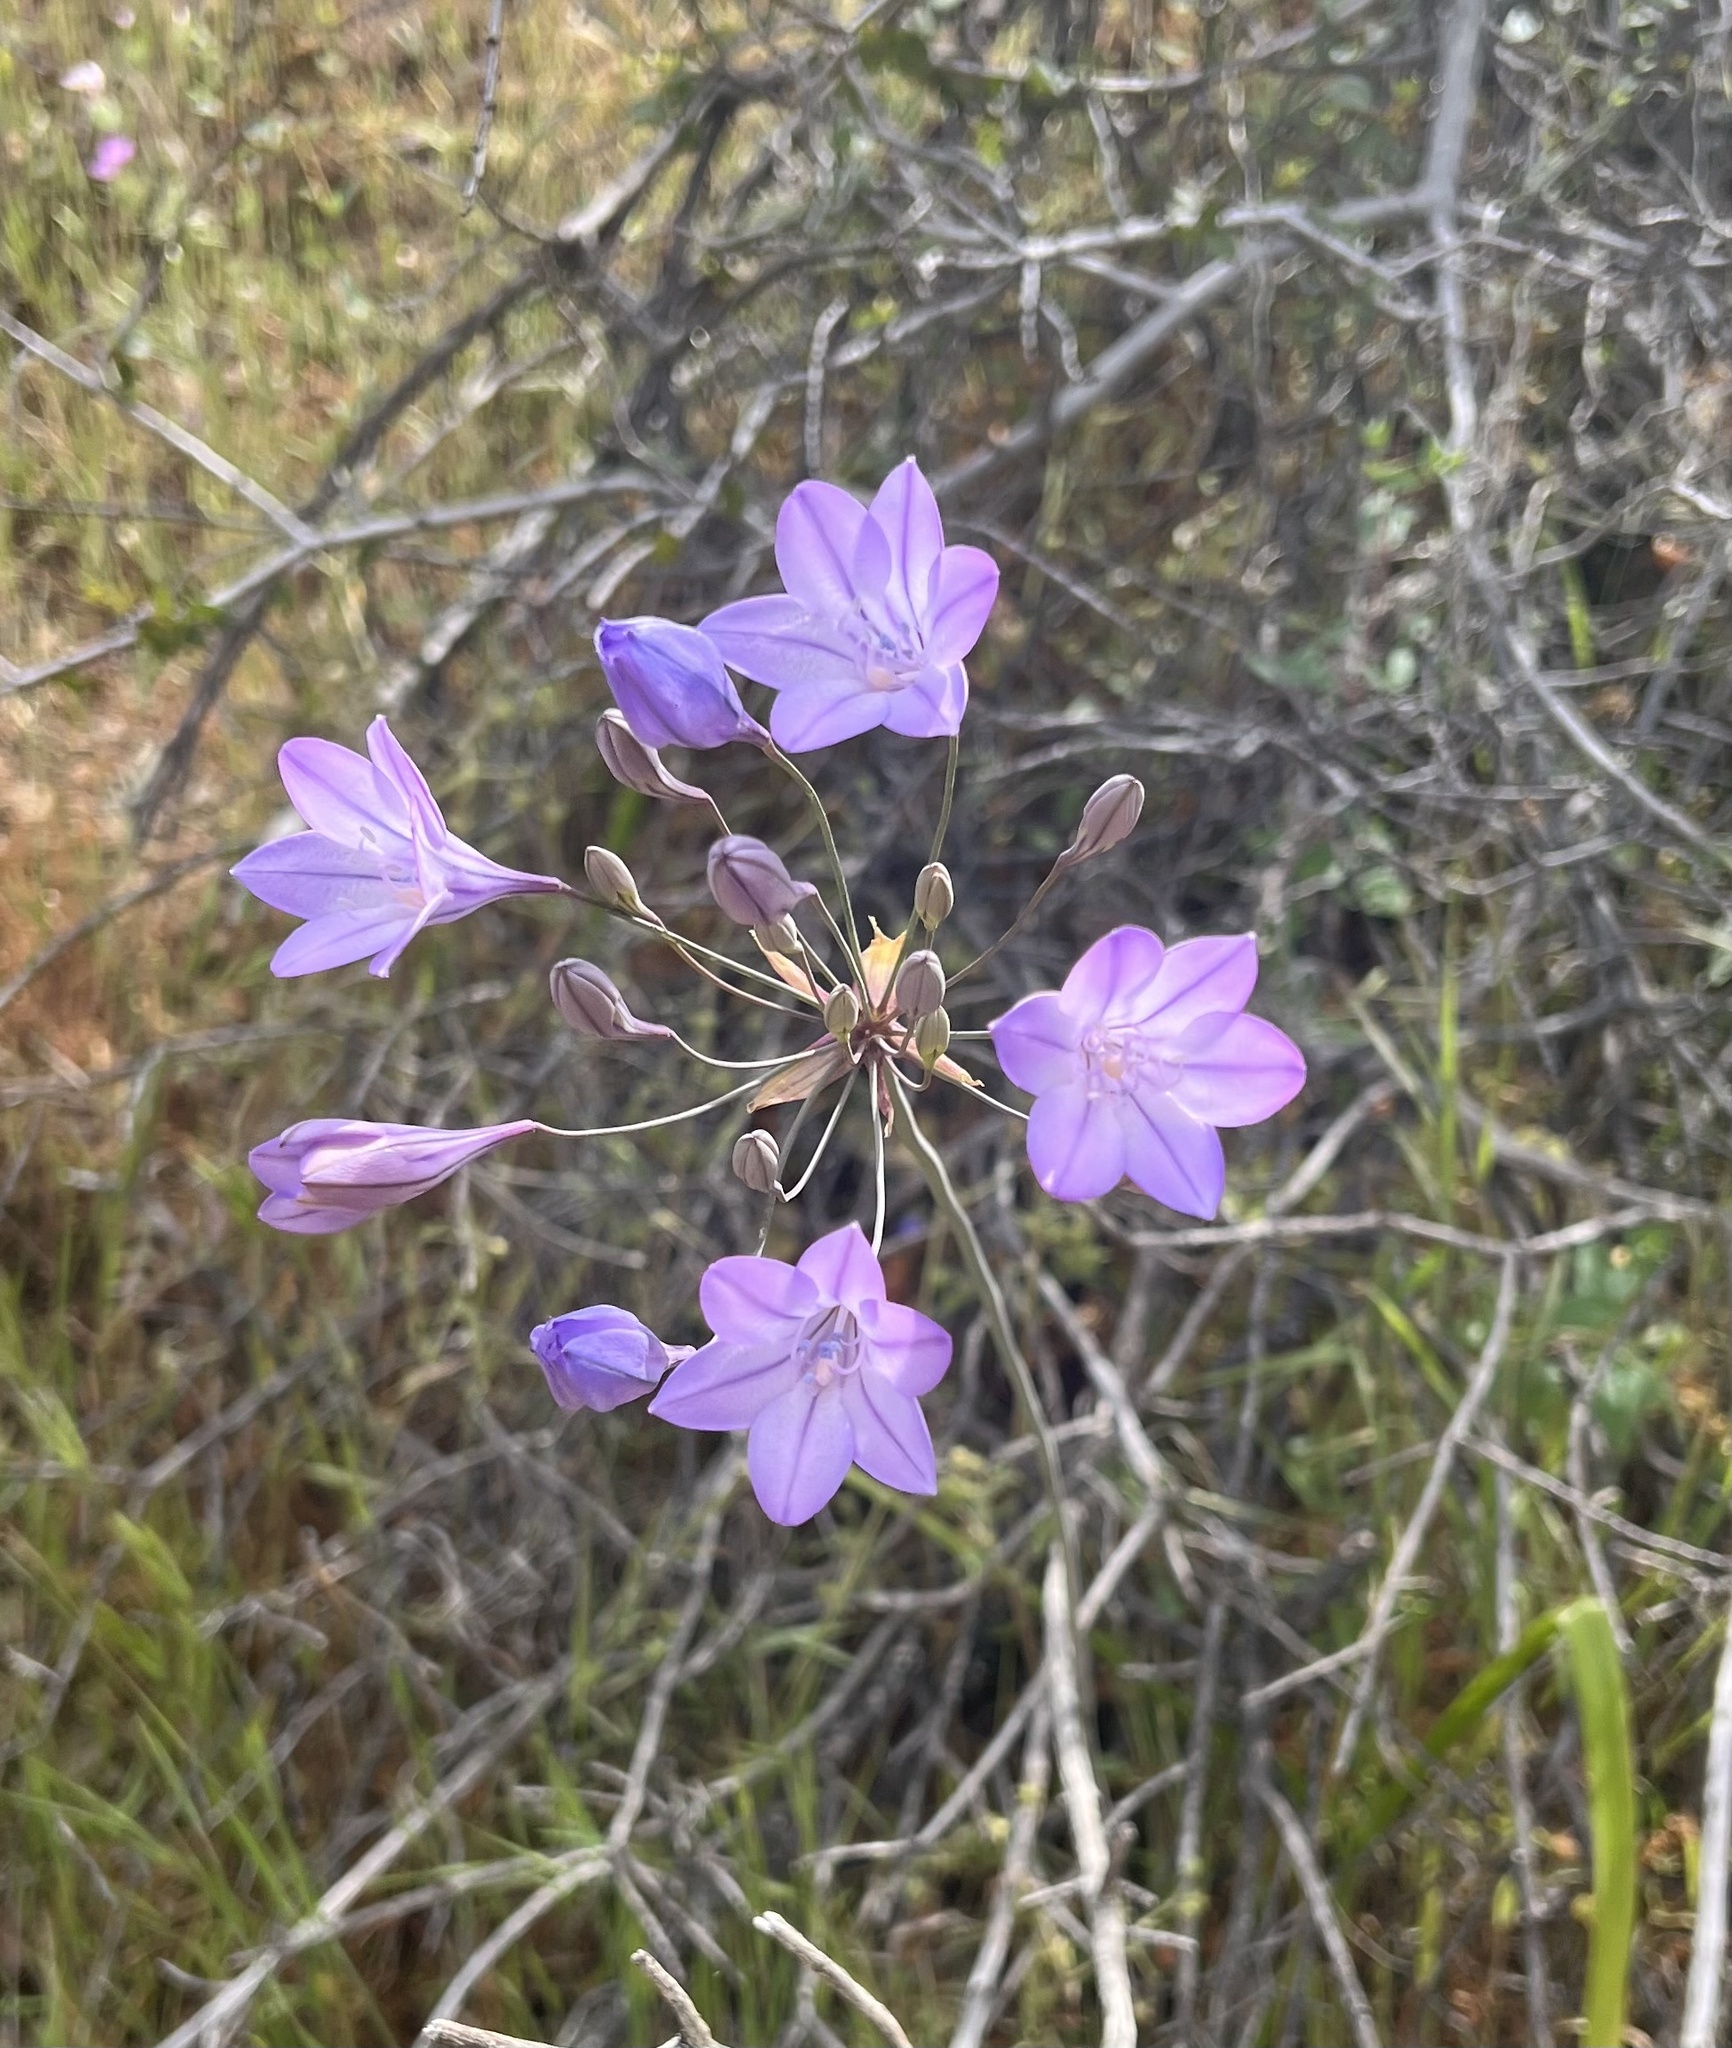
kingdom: Plantae
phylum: Tracheophyta
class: Liliopsida
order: Asparagales
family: Asparagaceae
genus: Triteleia
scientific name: Triteleia laxa
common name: Triplet-lily
